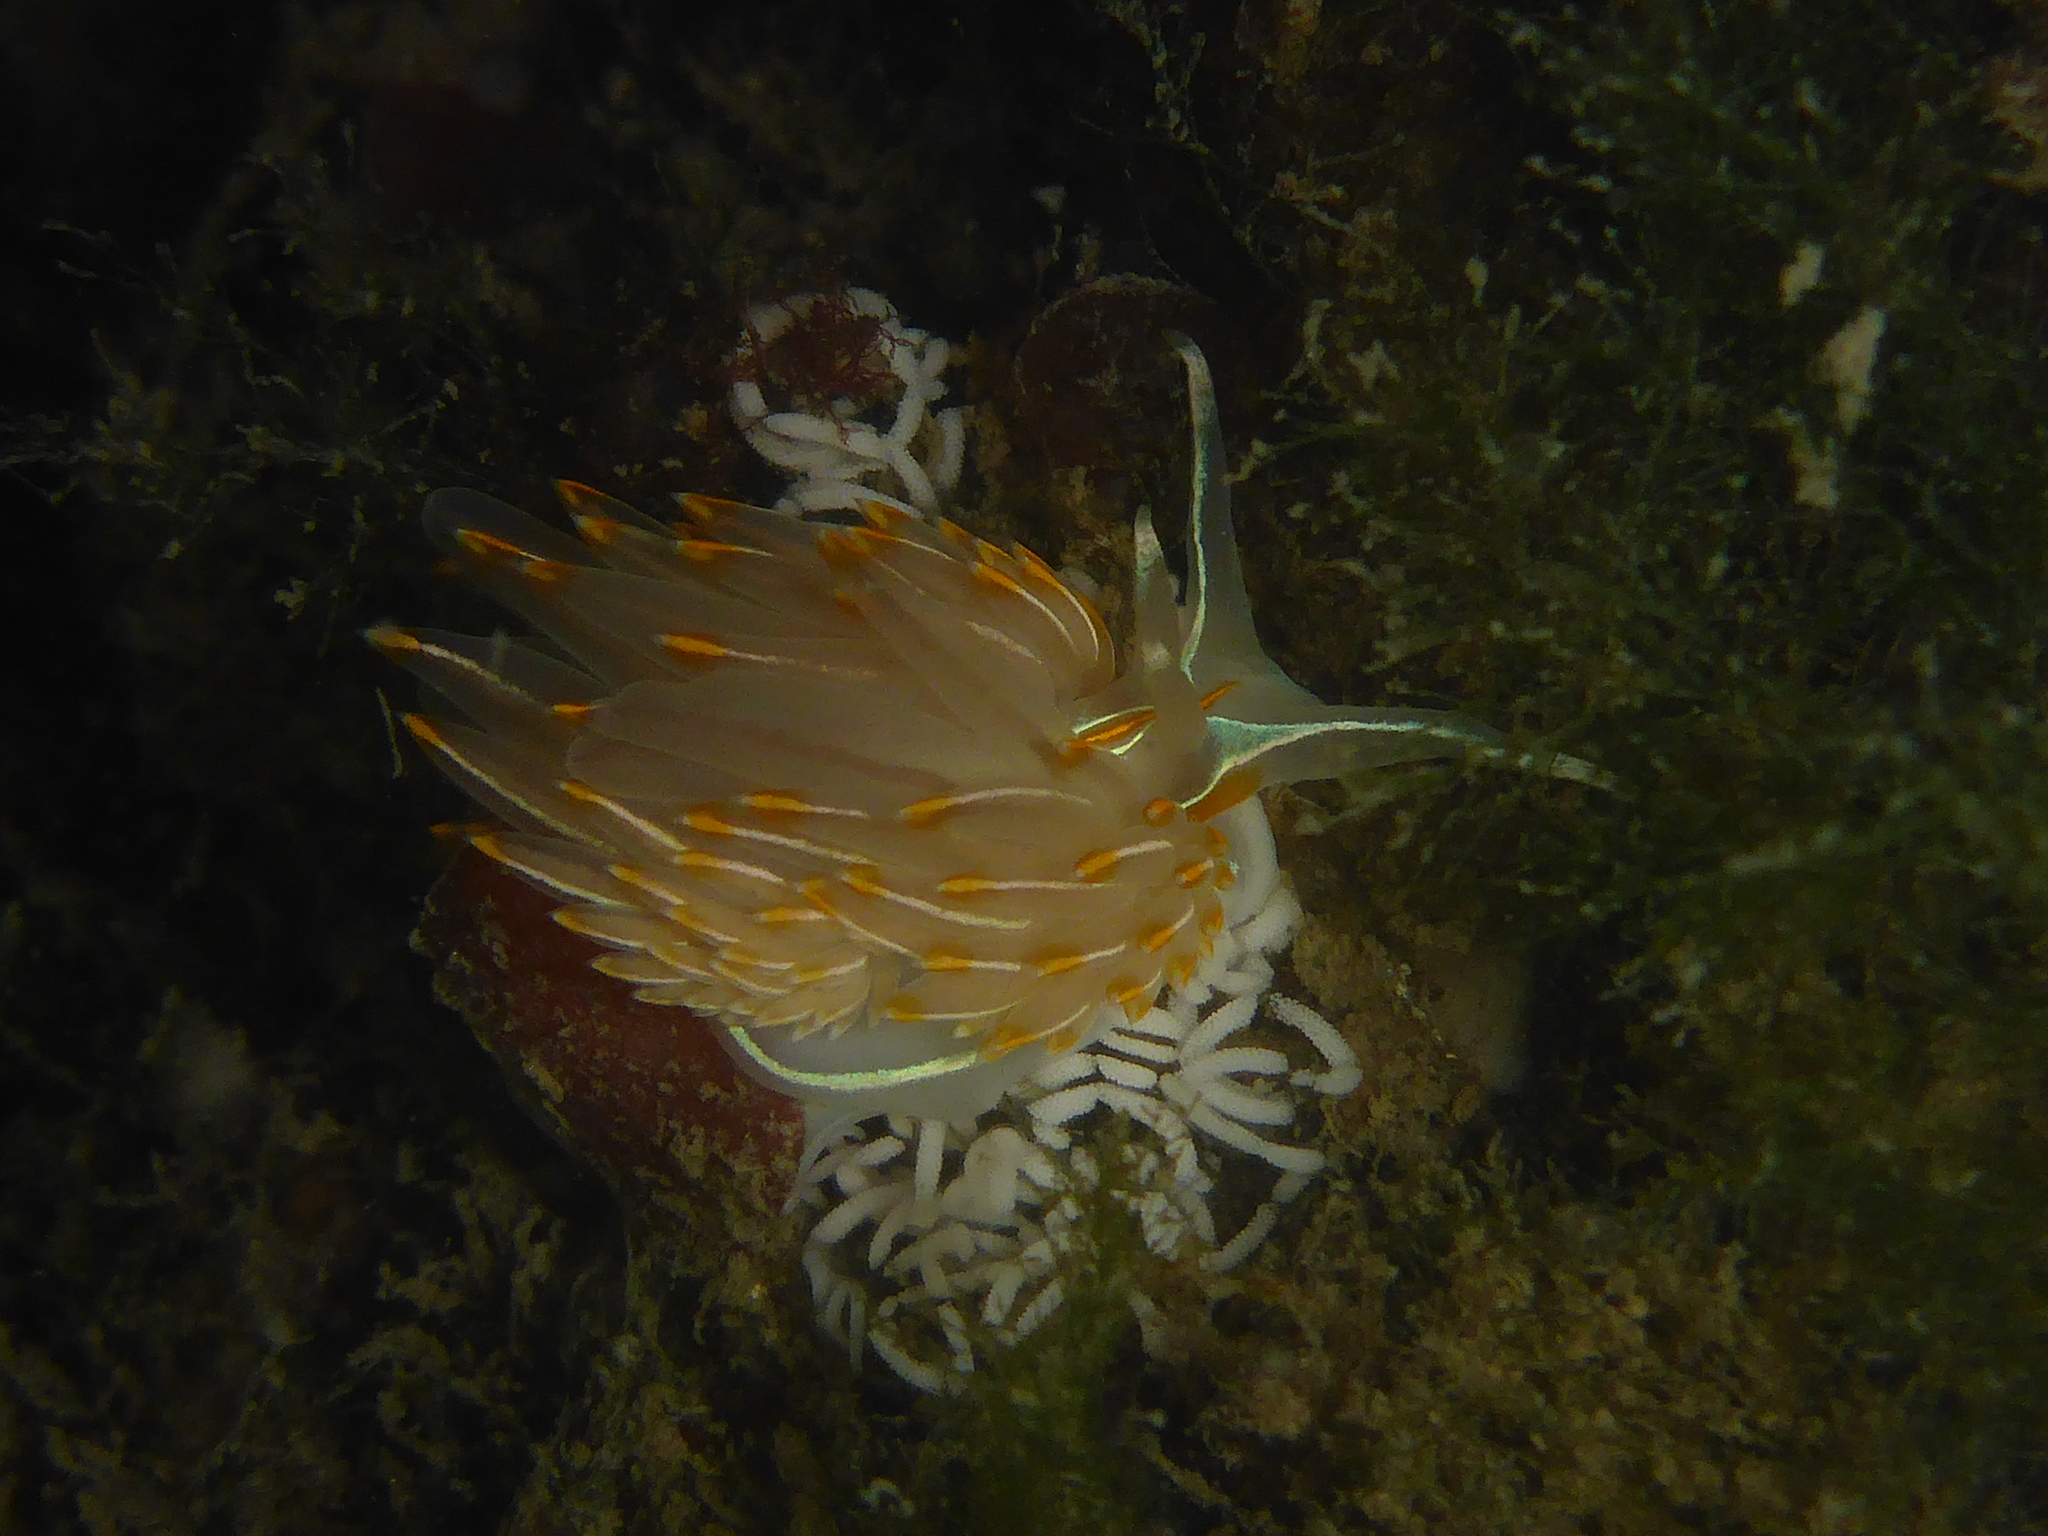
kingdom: Animalia
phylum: Mollusca
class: Gastropoda
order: Nudibranchia
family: Myrrhinidae
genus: Hermissenda
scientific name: Hermissenda crassicornis
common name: Hermissenda
